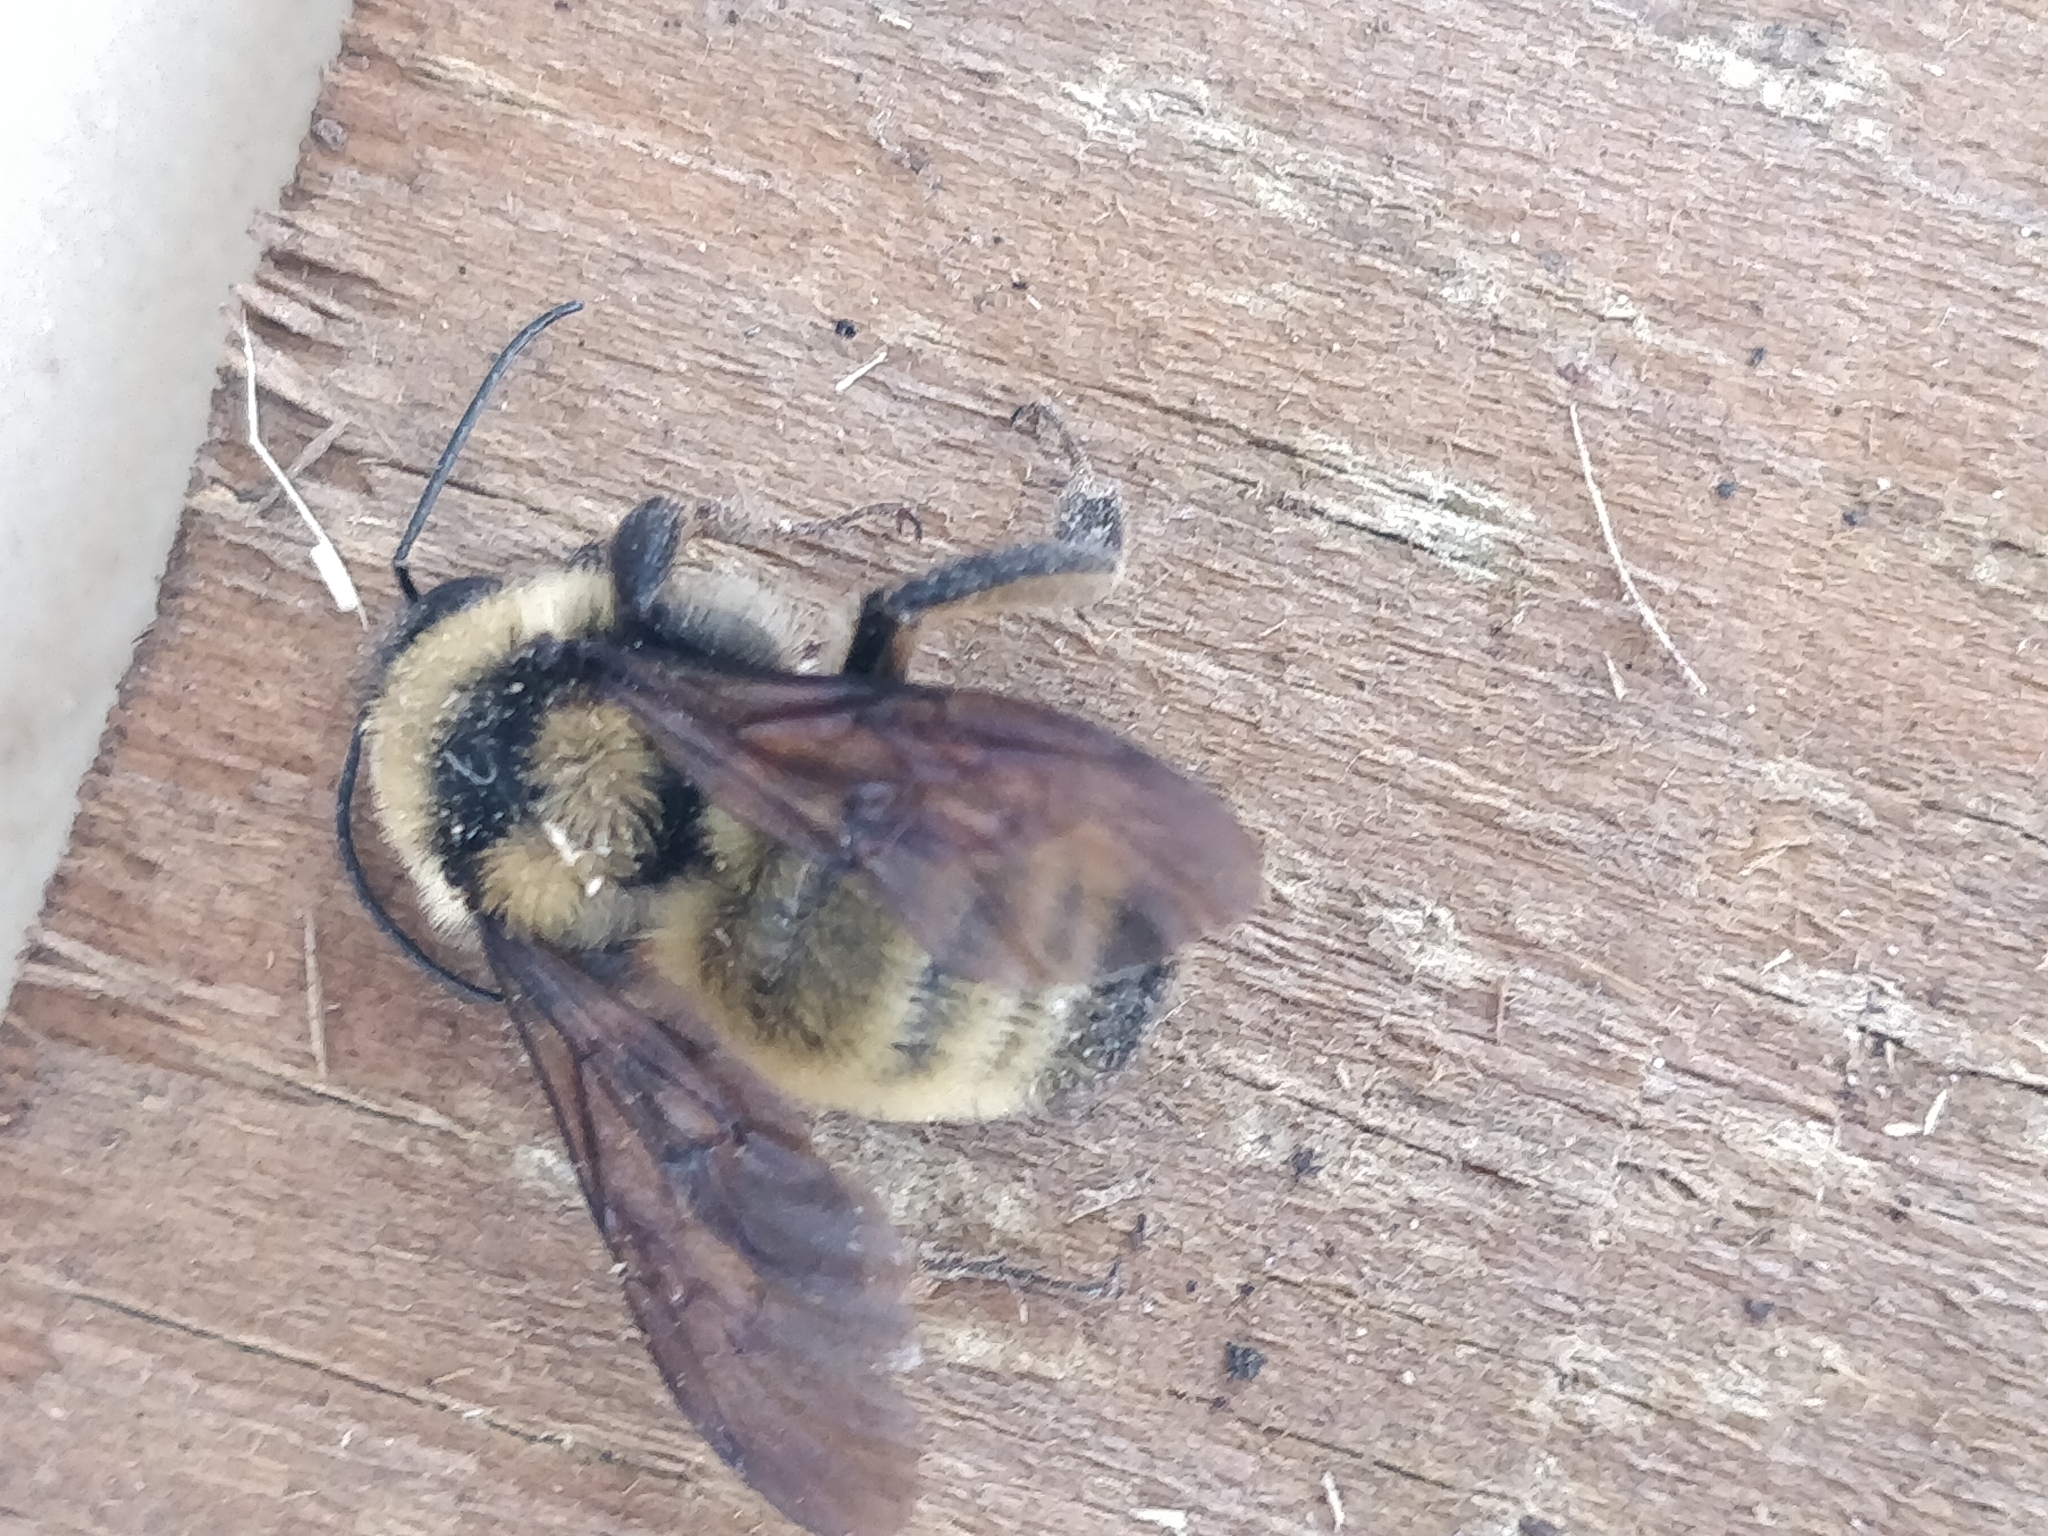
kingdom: Animalia
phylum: Arthropoda
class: Insecta
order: Hymenoptera
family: Apidae
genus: Bombus
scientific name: Bombus pensylvanicus
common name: Bumble bee
